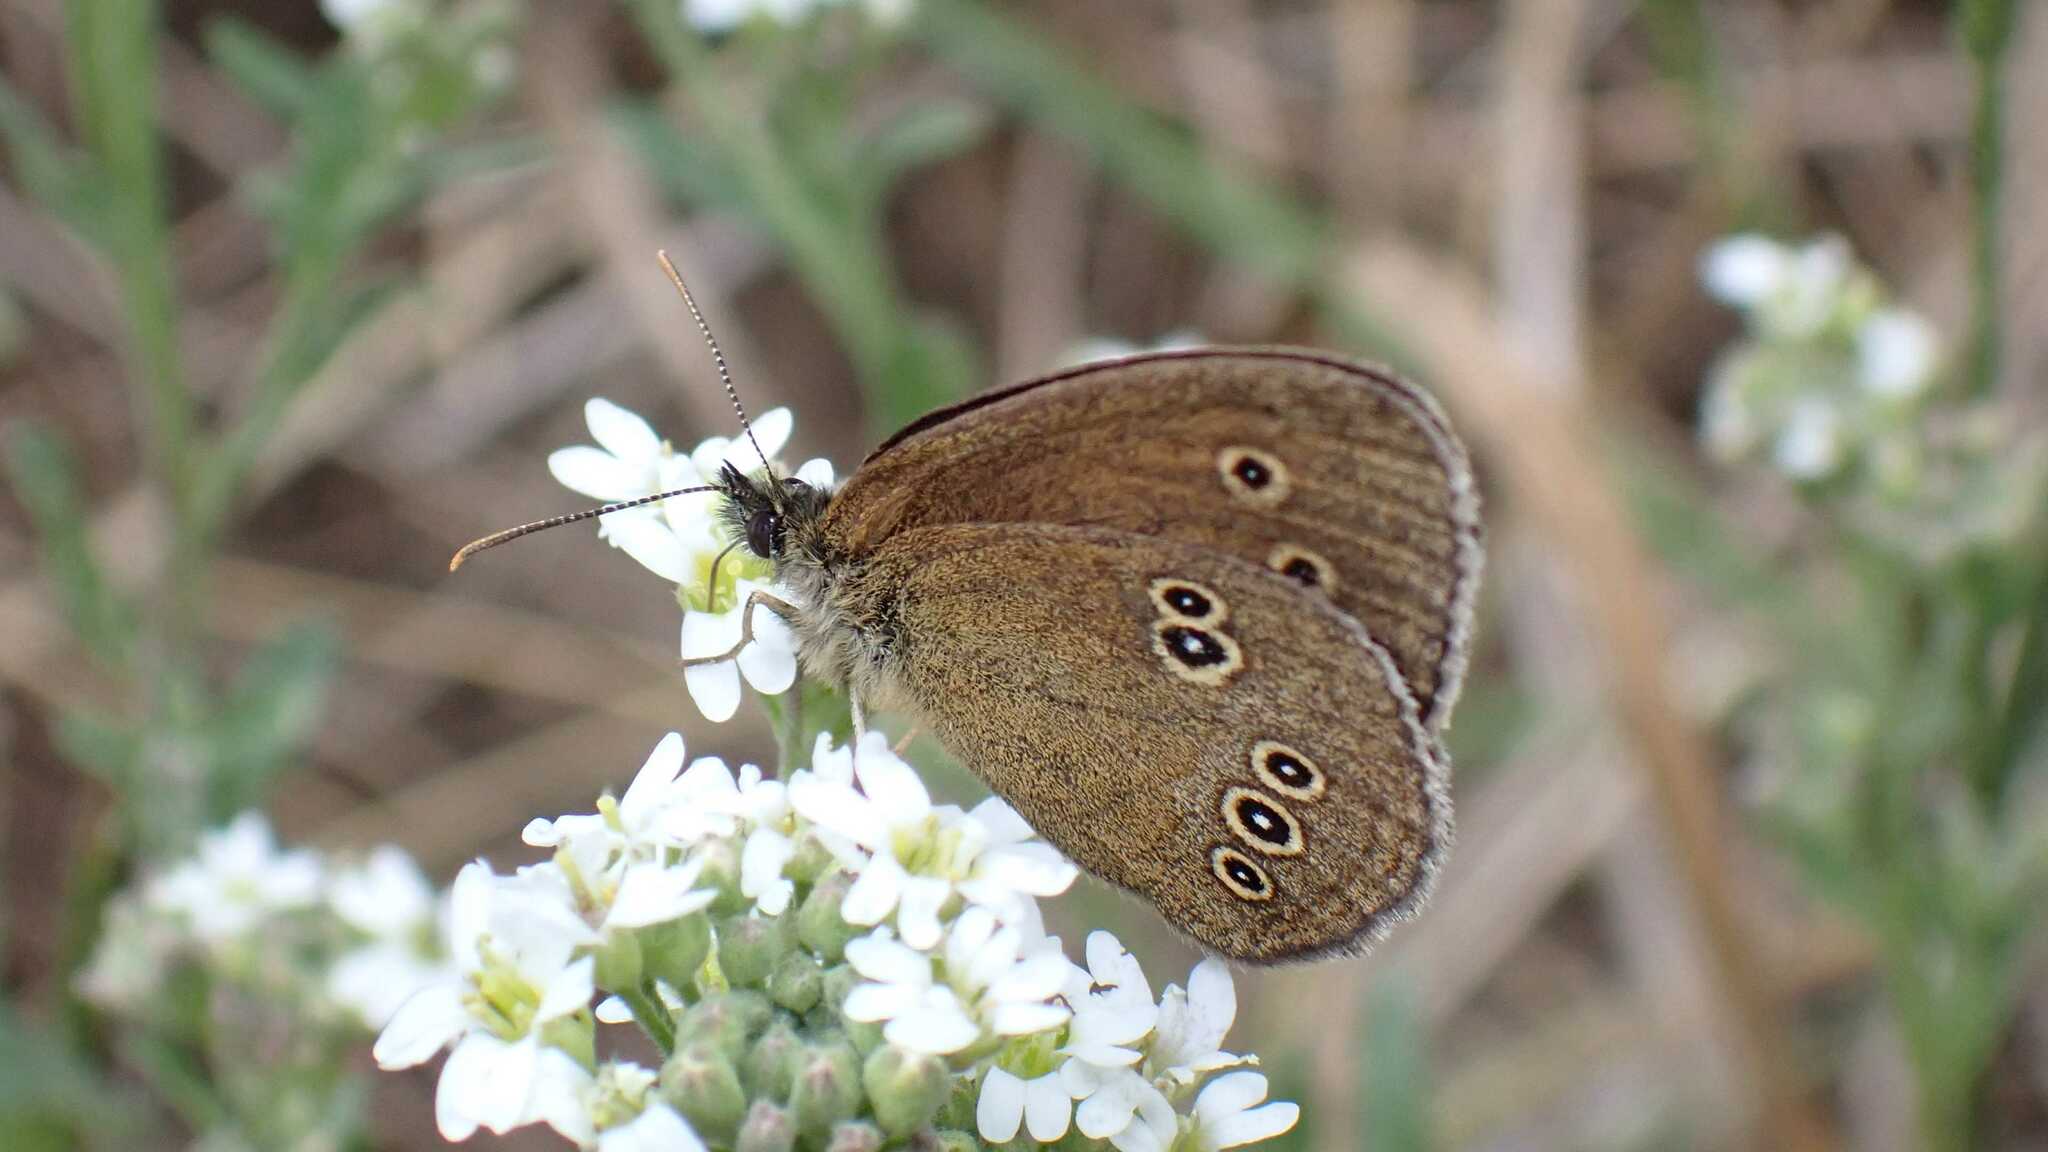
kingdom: Animalia
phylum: Arthropoda
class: Insecta
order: Lepidoptera
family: Nymphalidae
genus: Aphantopus
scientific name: Aphantopus hyperantus
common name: Ringlet
